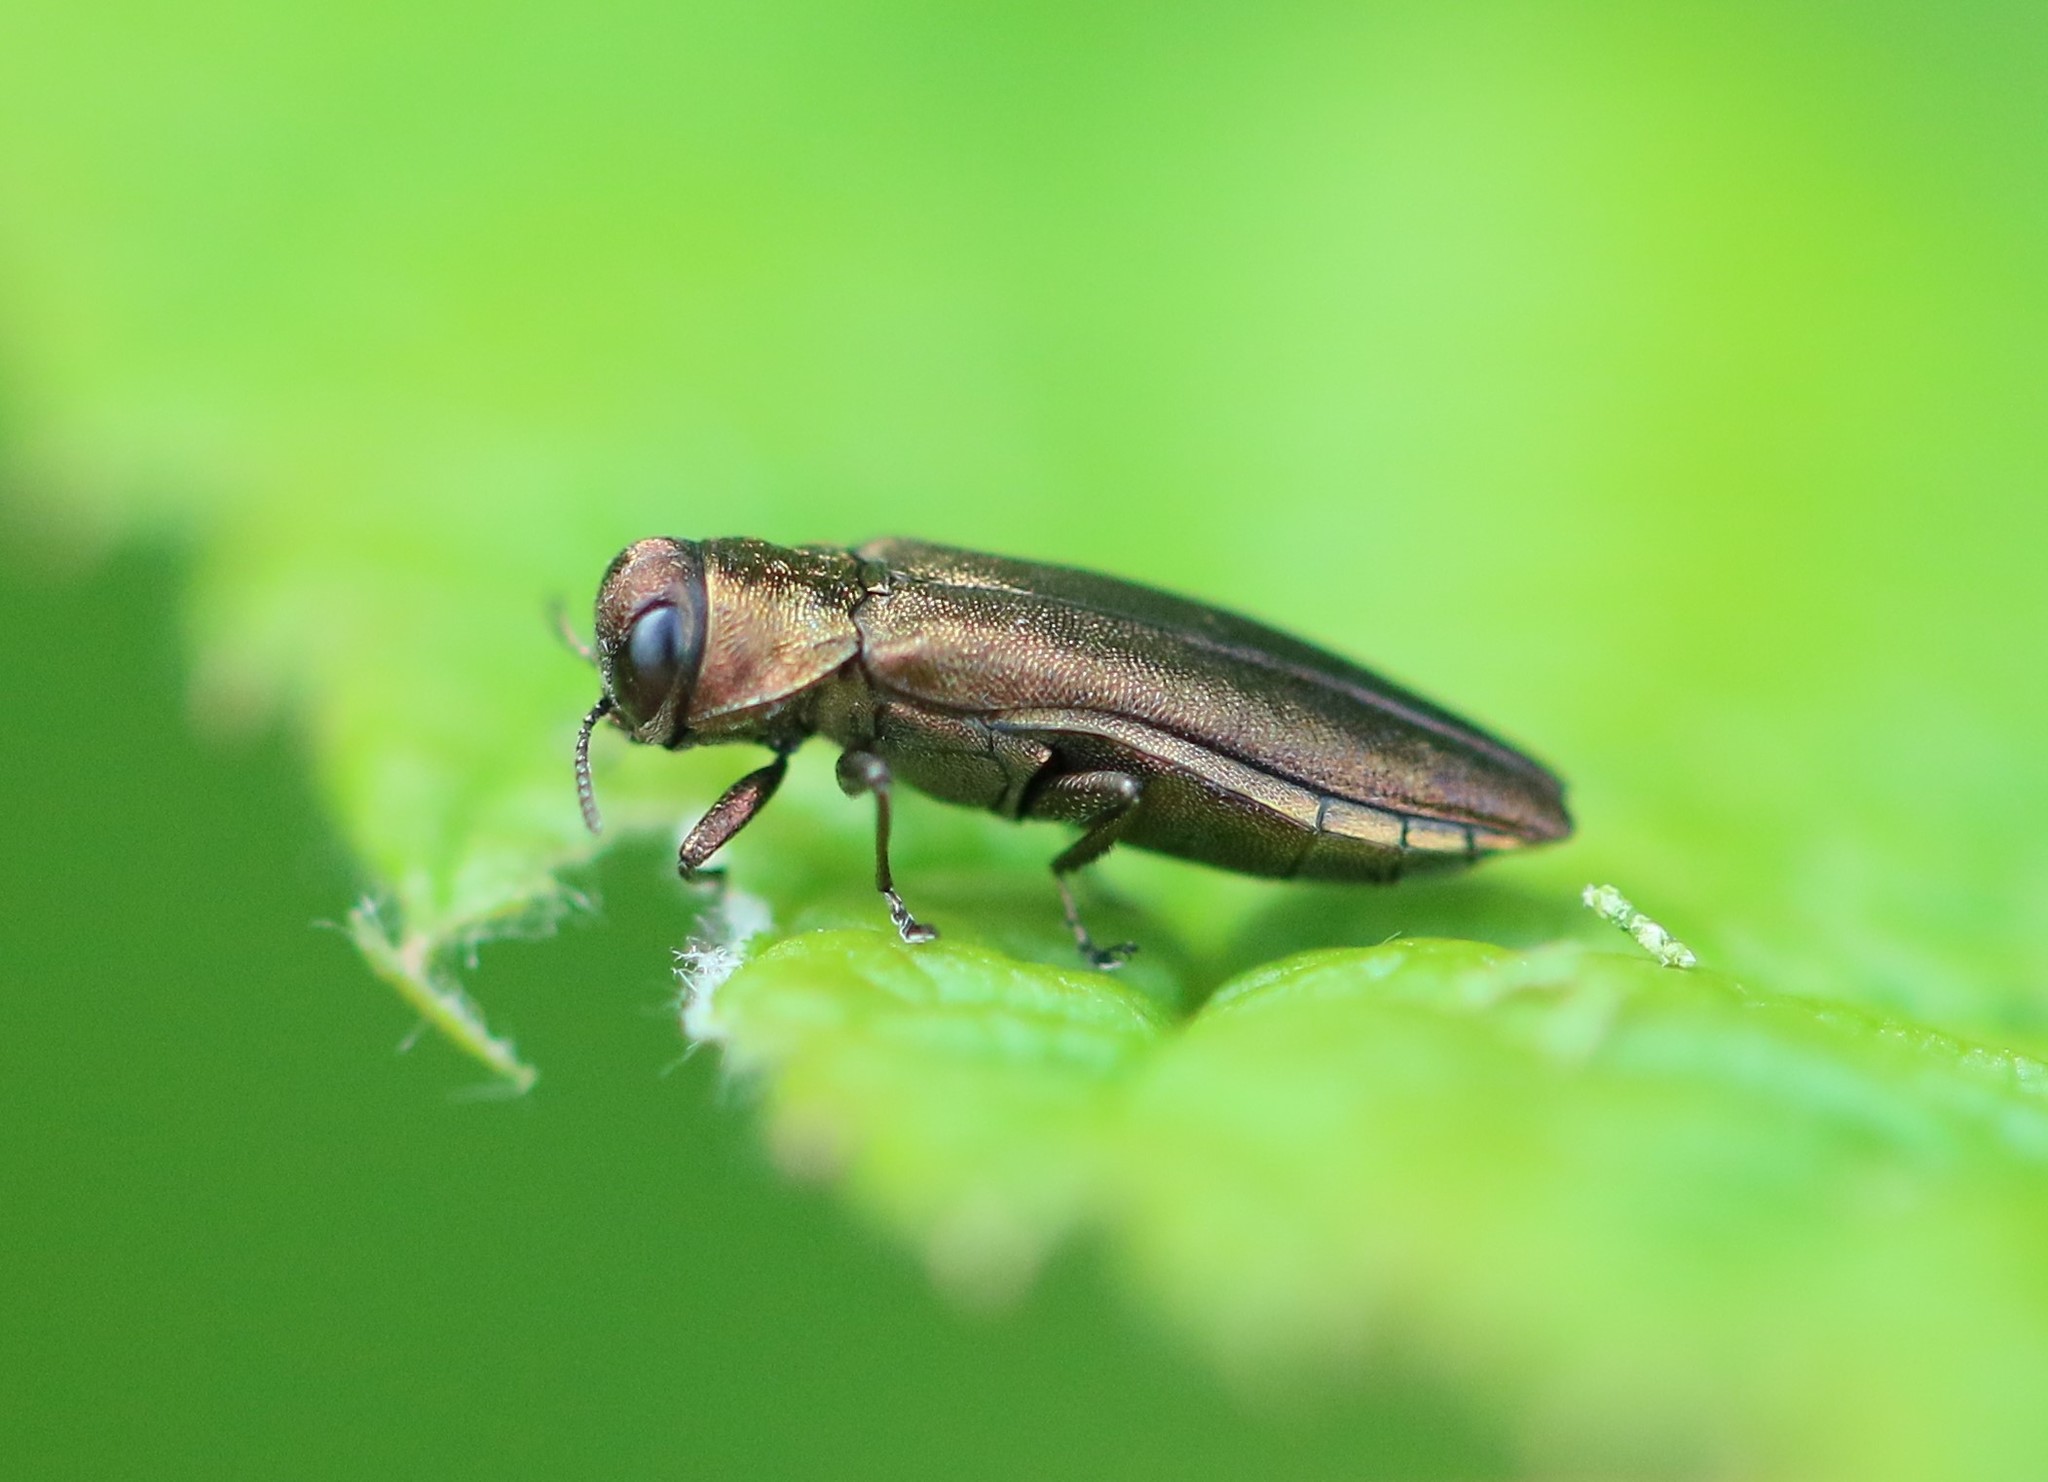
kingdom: Animalia
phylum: Arthropoda
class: Insecta
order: Coleoptera
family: Buprestidae
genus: Agrilus
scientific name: Agrilus cuprescens
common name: Rose stem girdler
